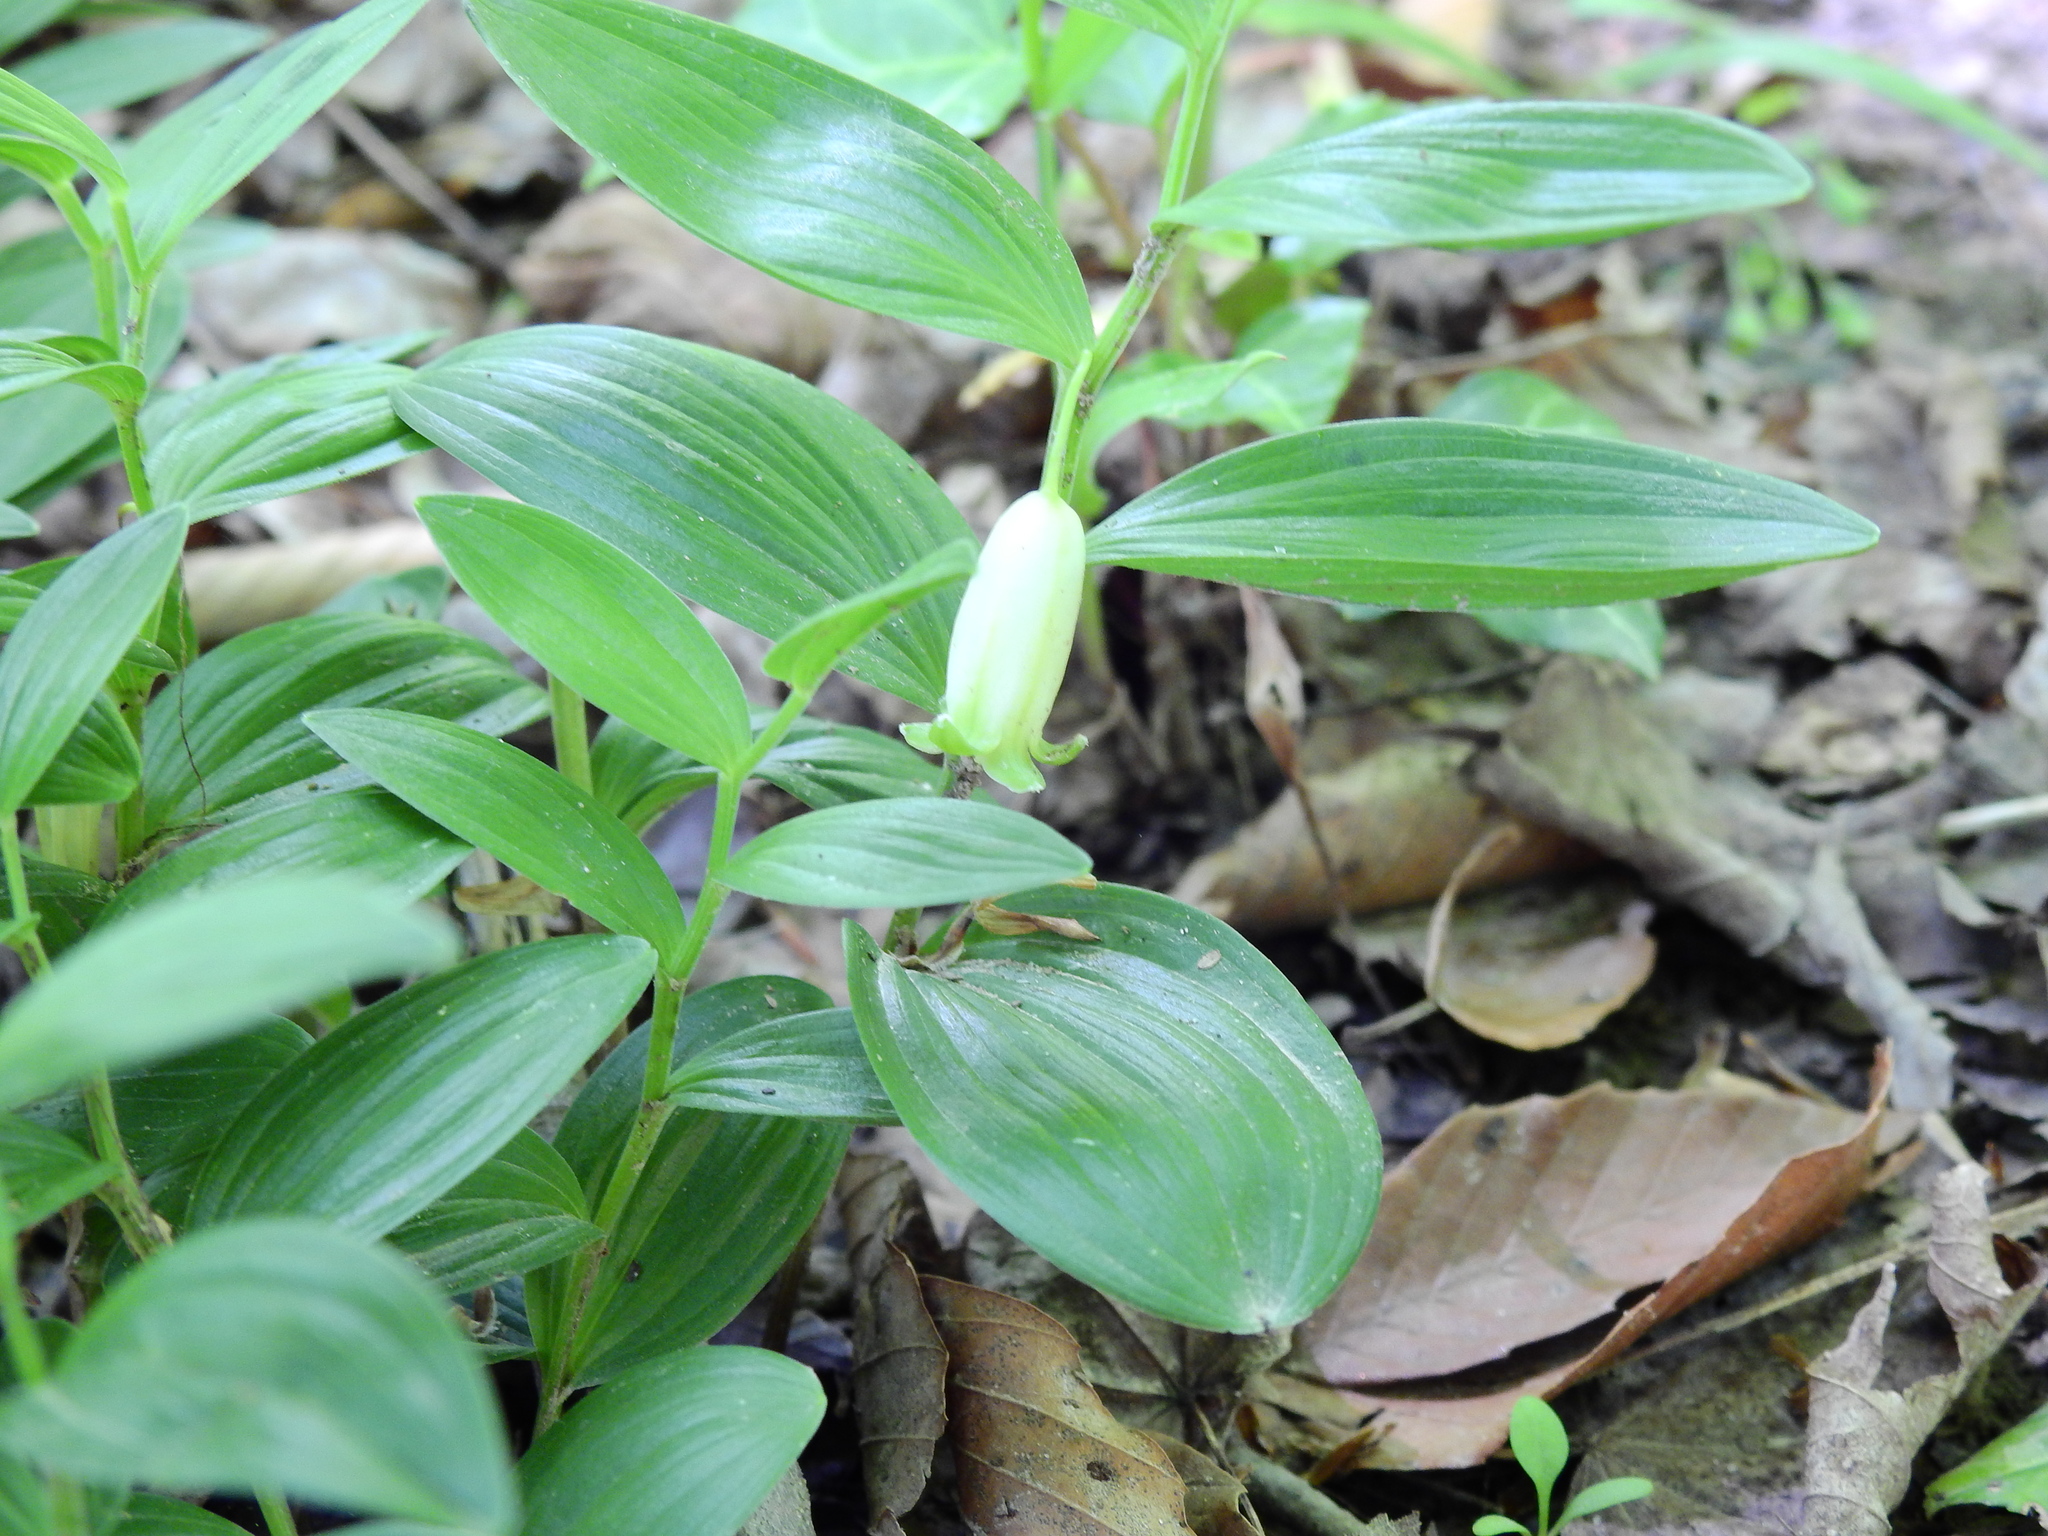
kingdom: Plantae
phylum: Tracheophyta
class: Liliopsida
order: Asparagales
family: Asparagaceae
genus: Polygonatum
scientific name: Polygonatum humile
